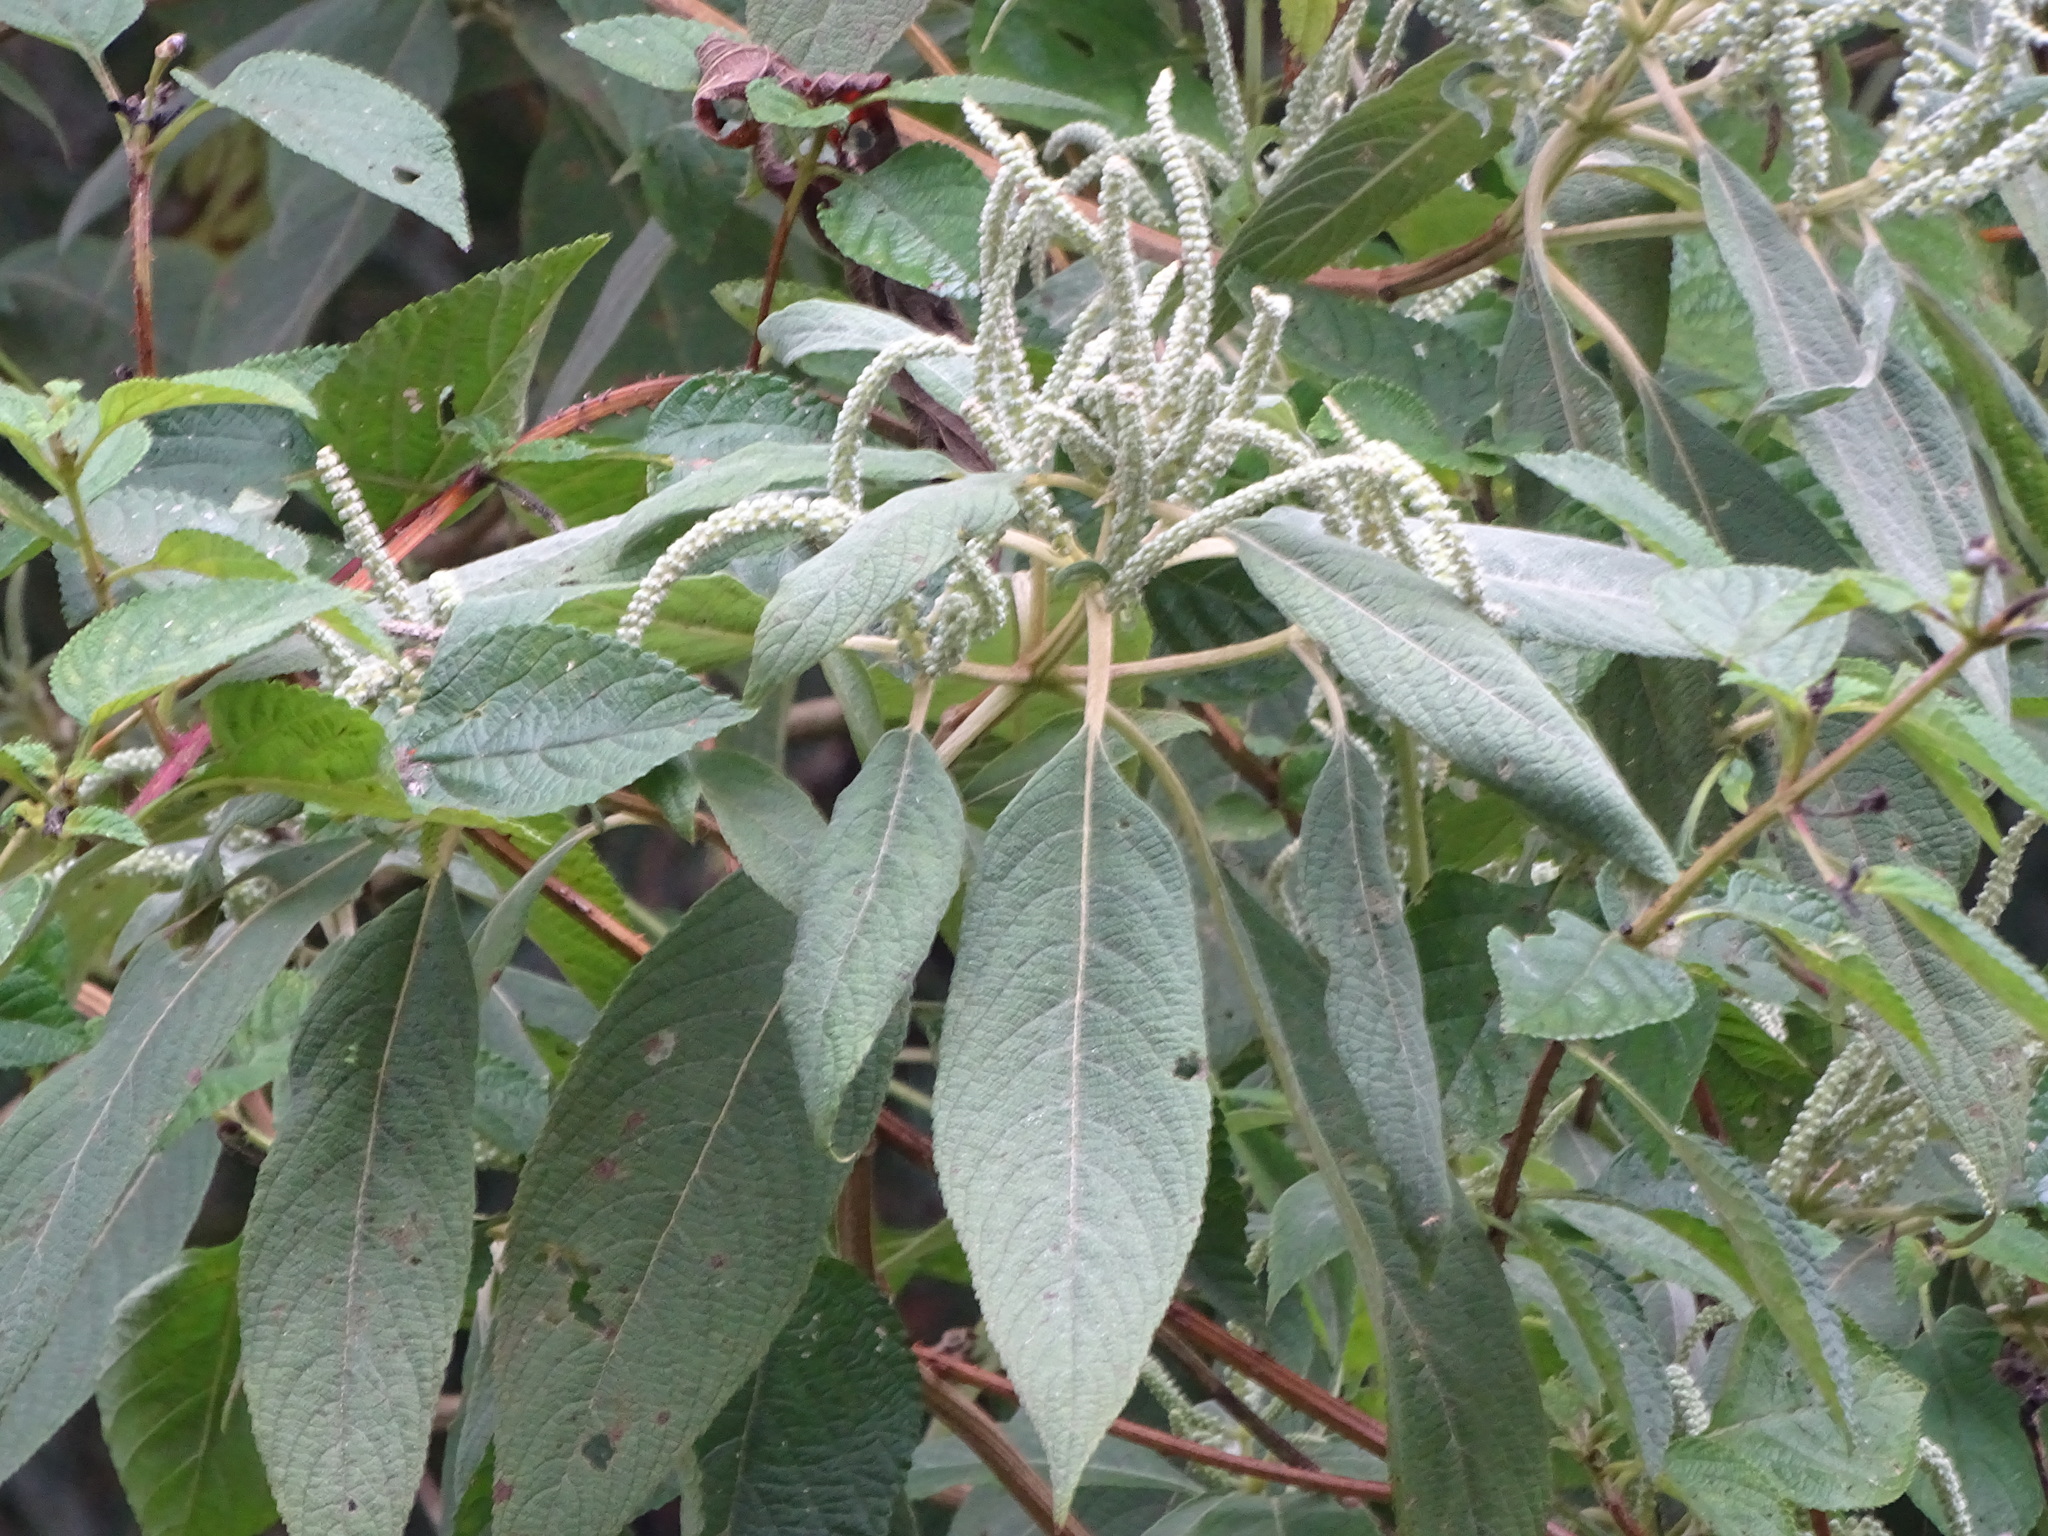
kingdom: Plantae
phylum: Tracheophyta
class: Magnoliopsida
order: Lamiales
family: Lamiaceae
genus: Colebrookea
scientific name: Colebrookea oppositifolia
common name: Indian squirrel tail
